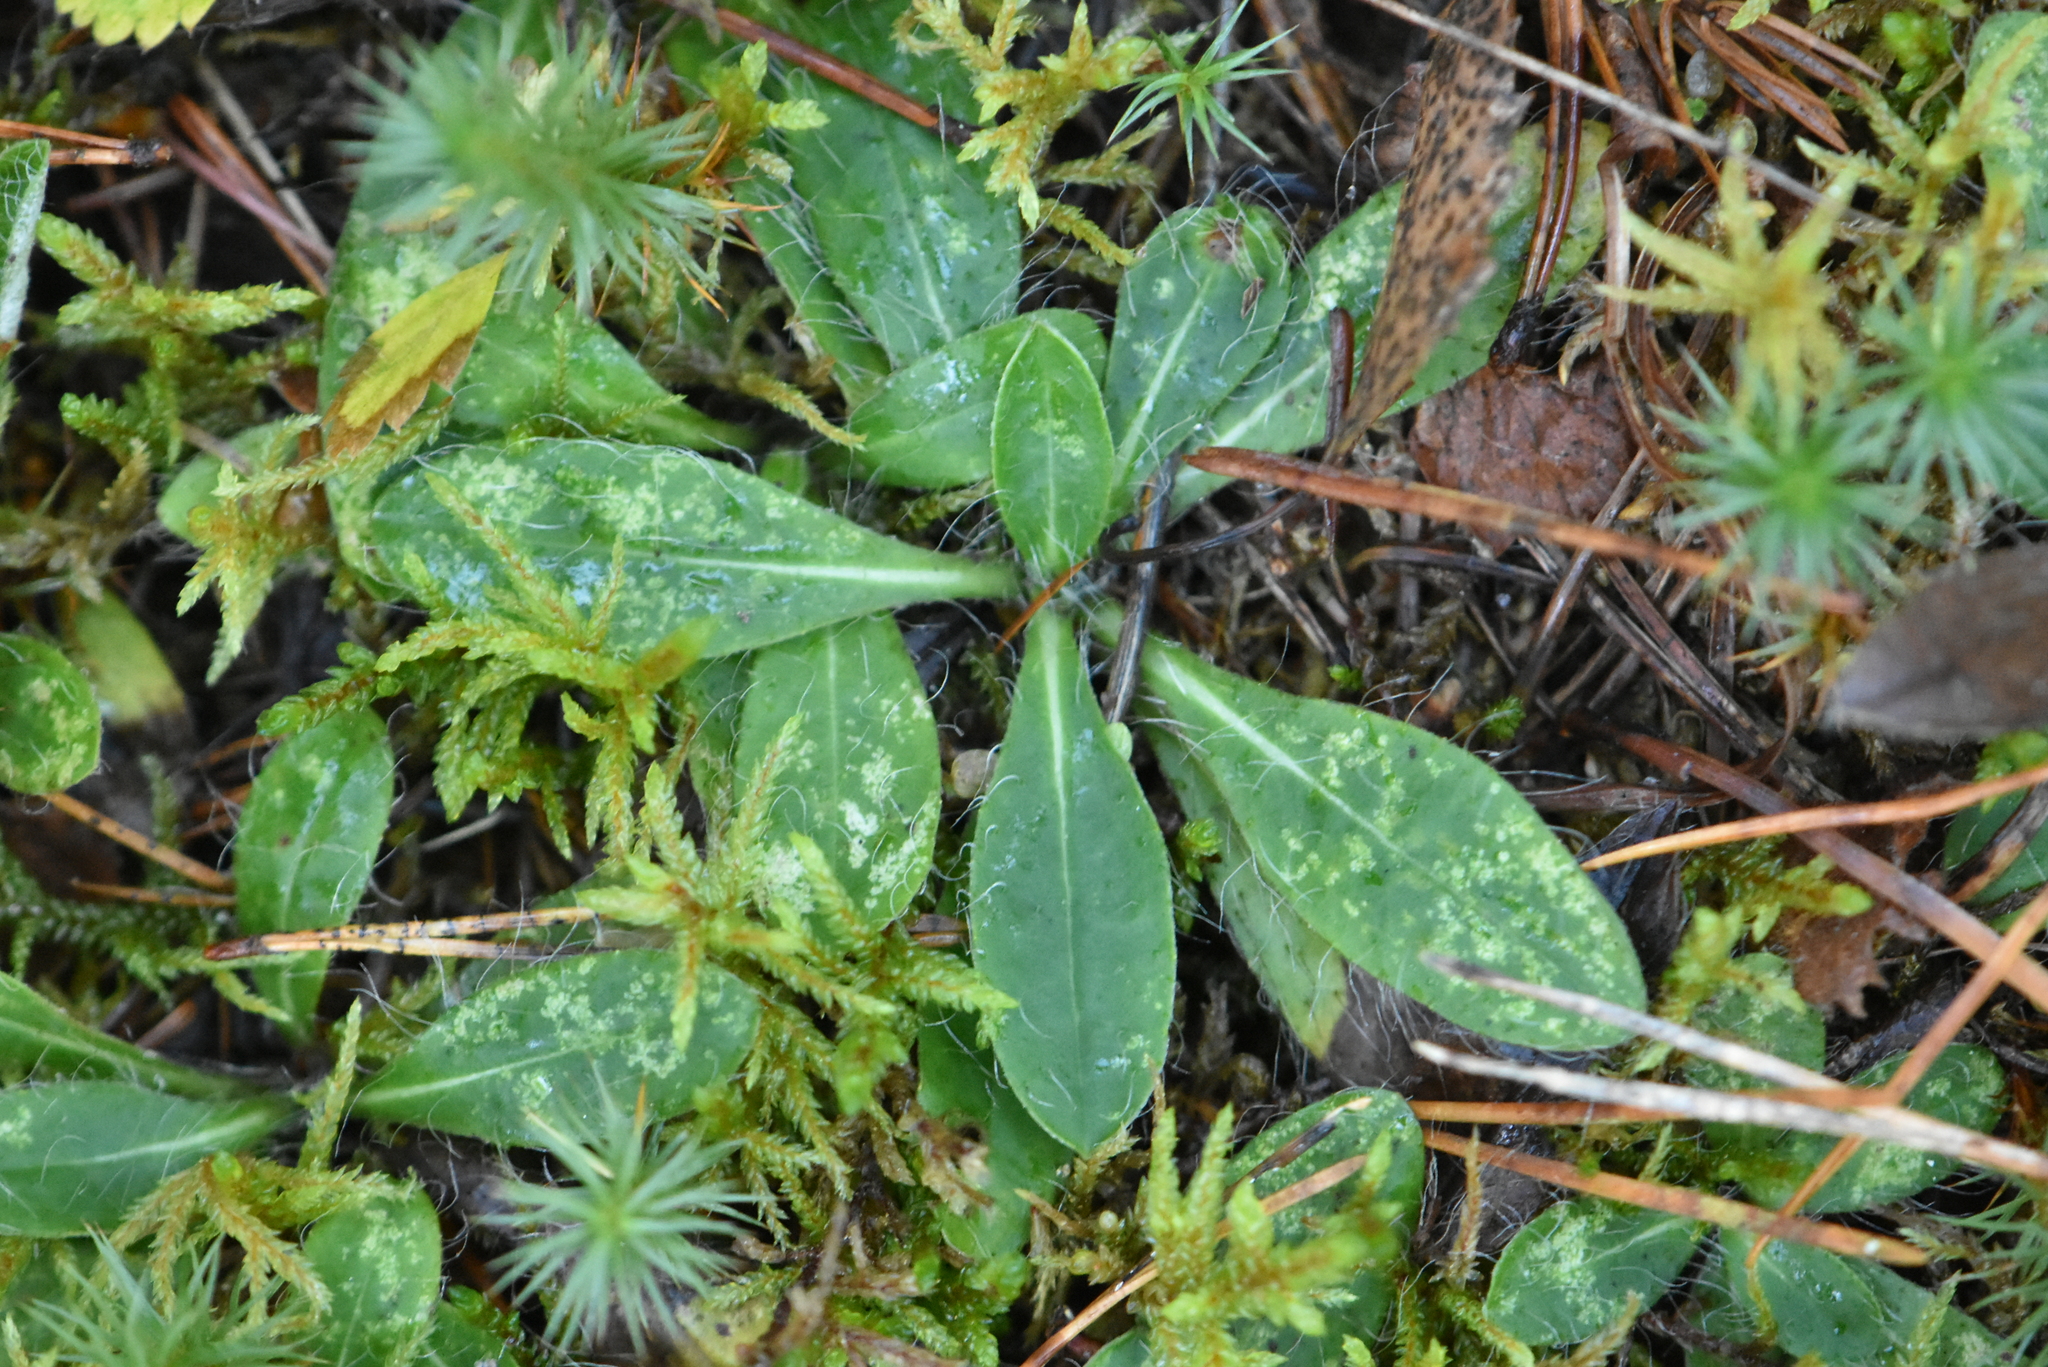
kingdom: Plantae
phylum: Tracheophyta
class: Magnoliopsida
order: Asterales
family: Asteraceae
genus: Pilosella
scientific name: Pilosella officinarum
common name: Mouse-ear hawkweed
